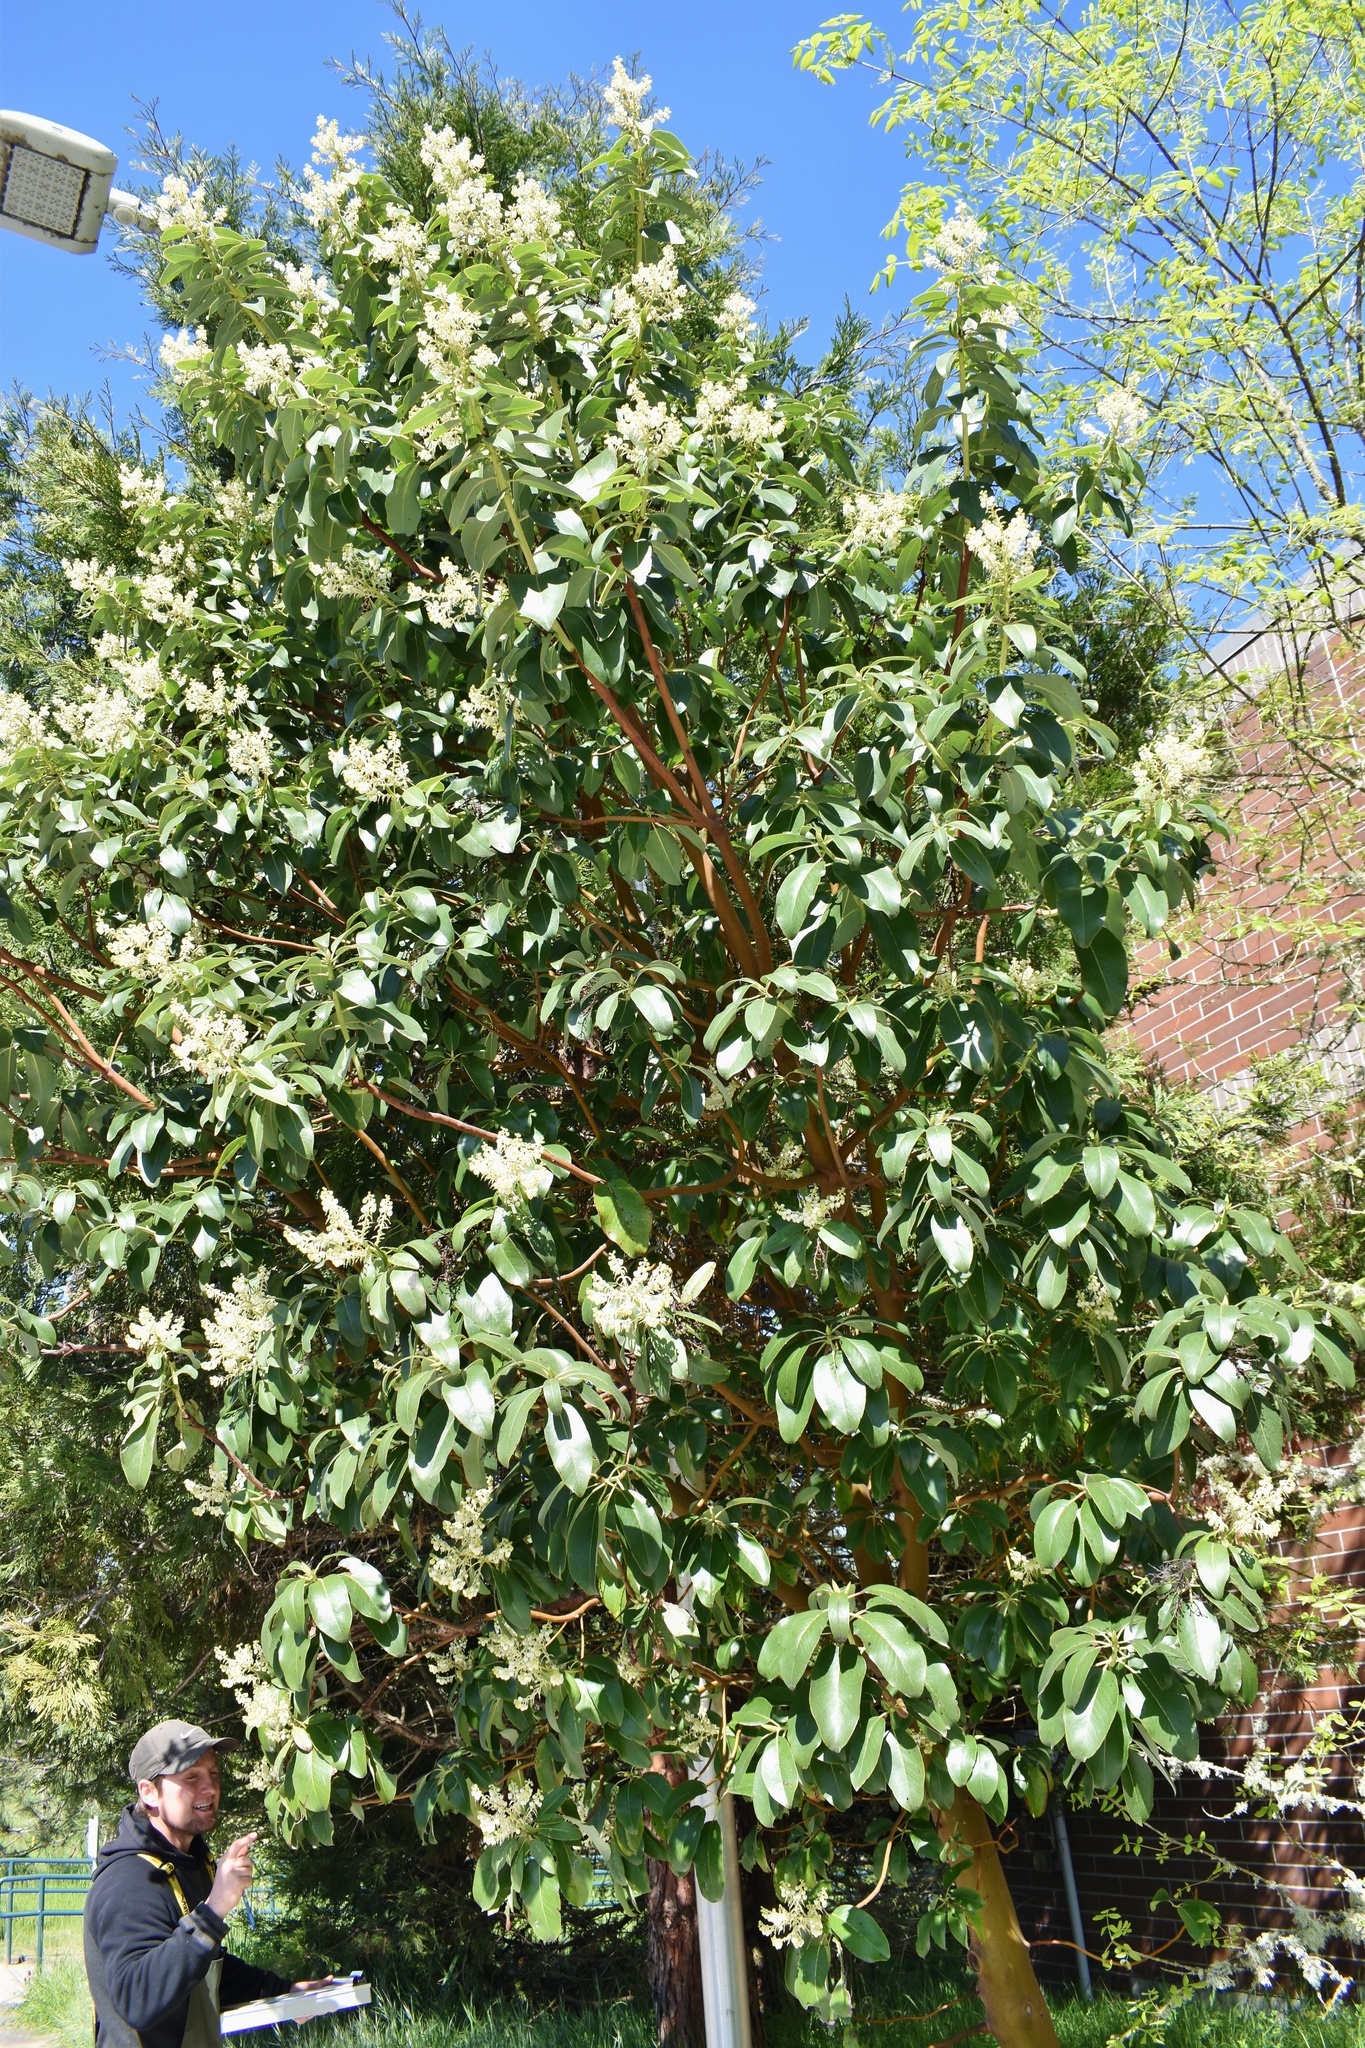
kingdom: Plantae
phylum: Tracheophyta
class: Magnoliopsida
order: Ericales
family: Ericaceae
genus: Arbutus
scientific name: Arbutus menziesii
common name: Pacific madrone
